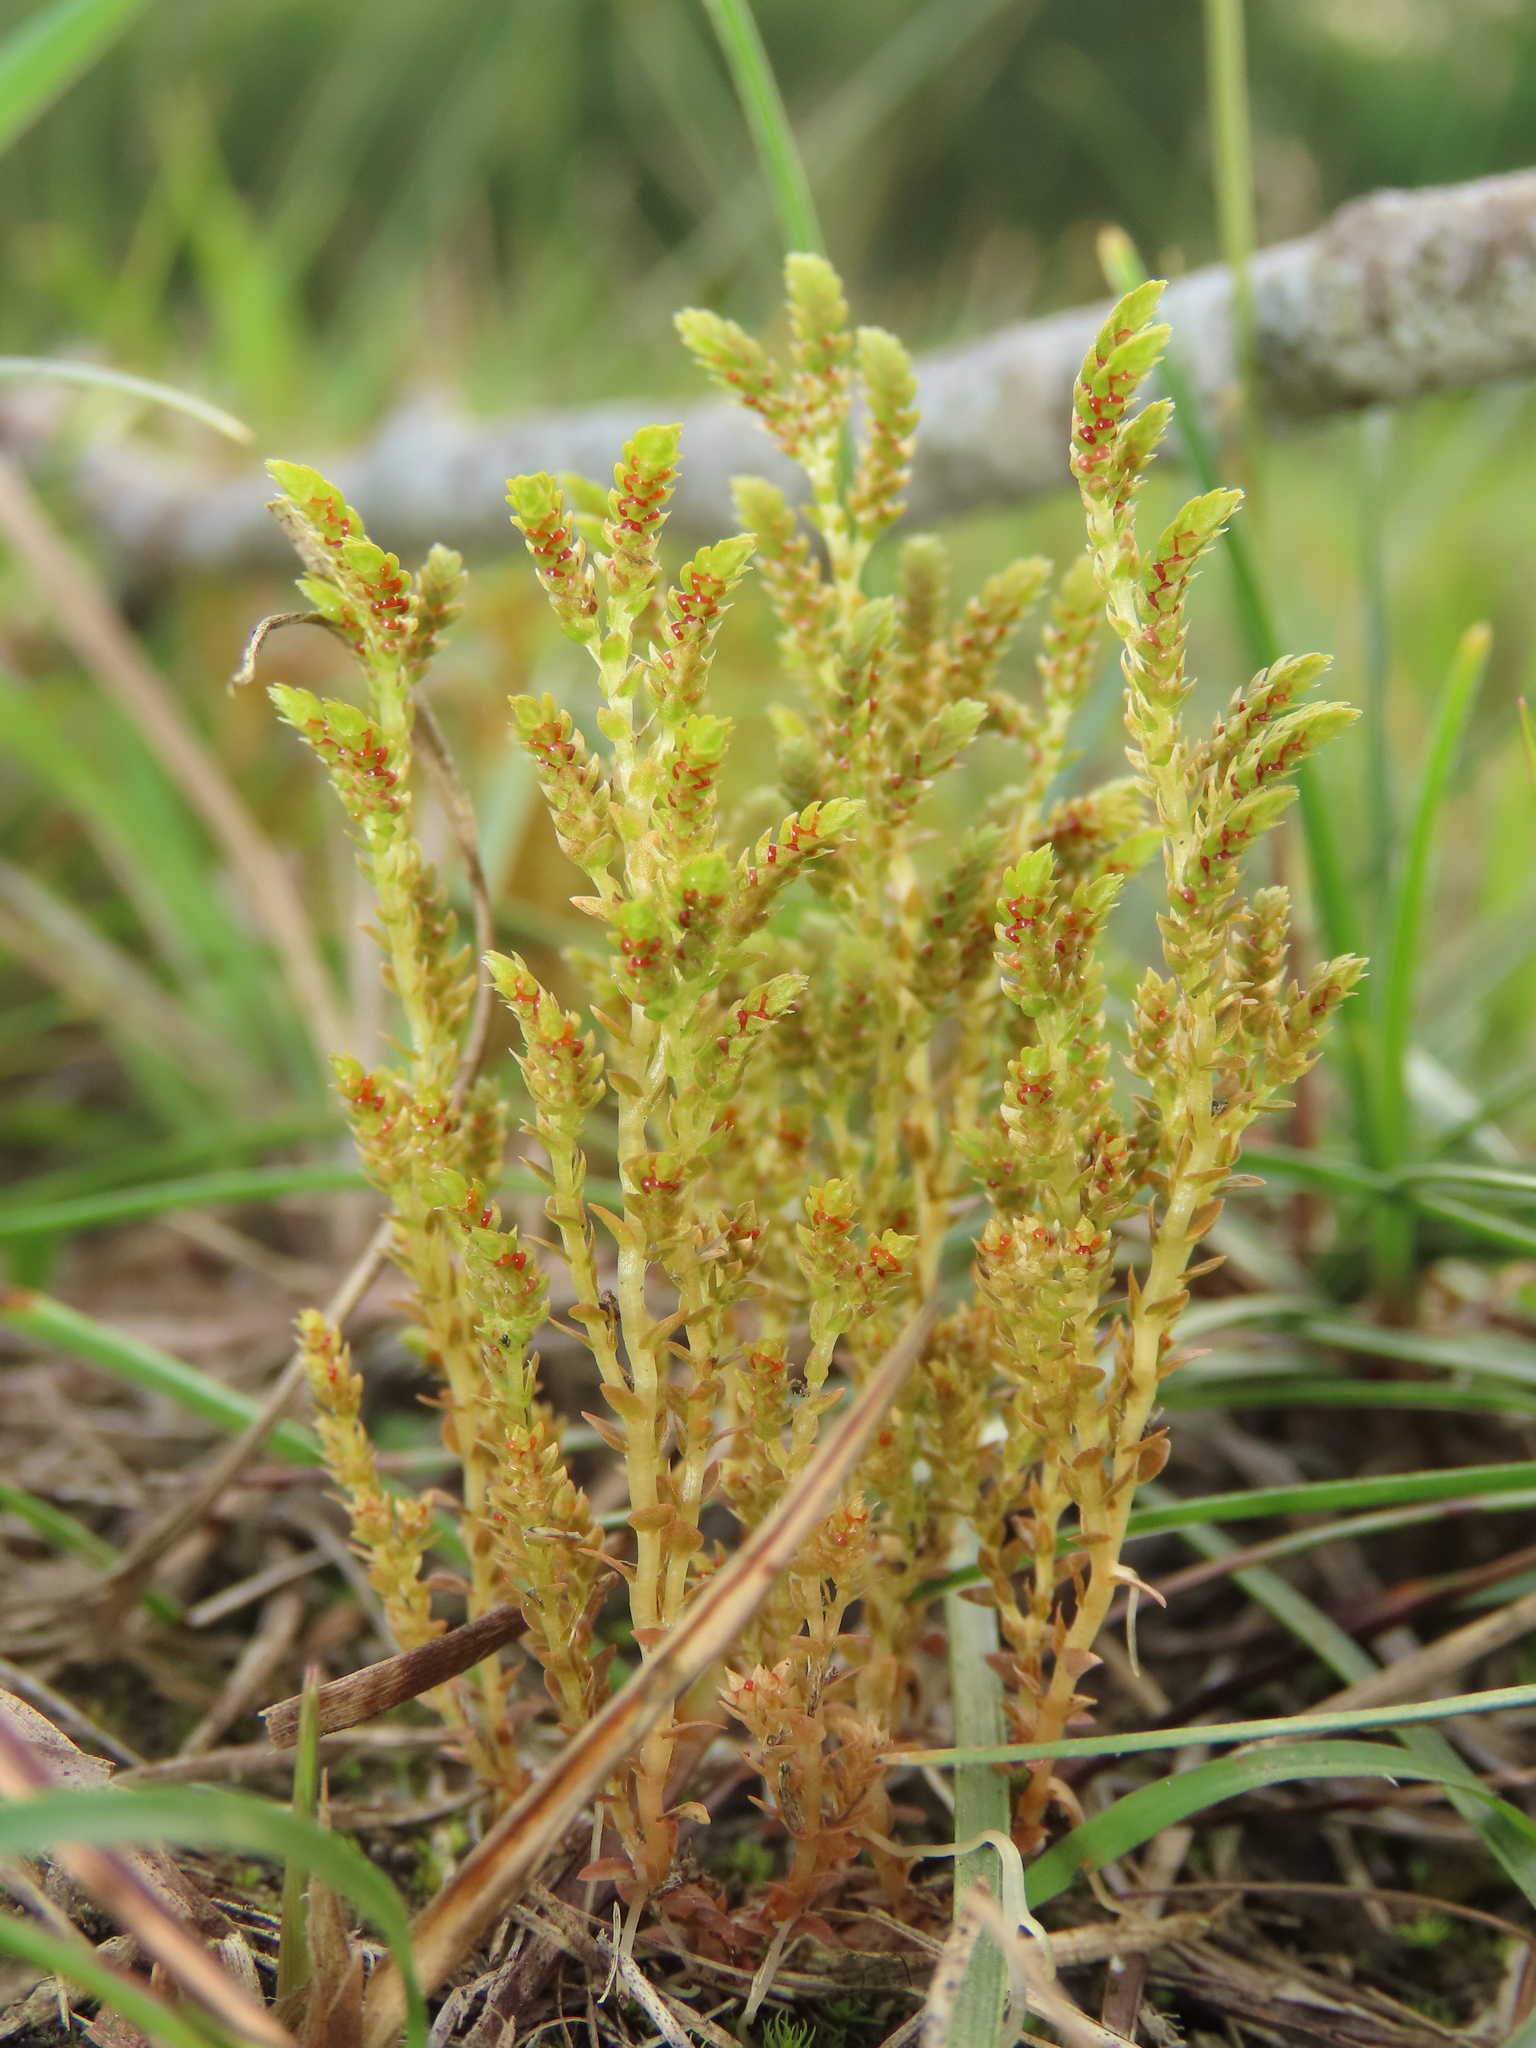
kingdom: Plantae
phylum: Tracheophyta
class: Lycopodiopsida
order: Selaginellales
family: Selaginellaceae
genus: Selaginella
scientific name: Selaginella aristata
